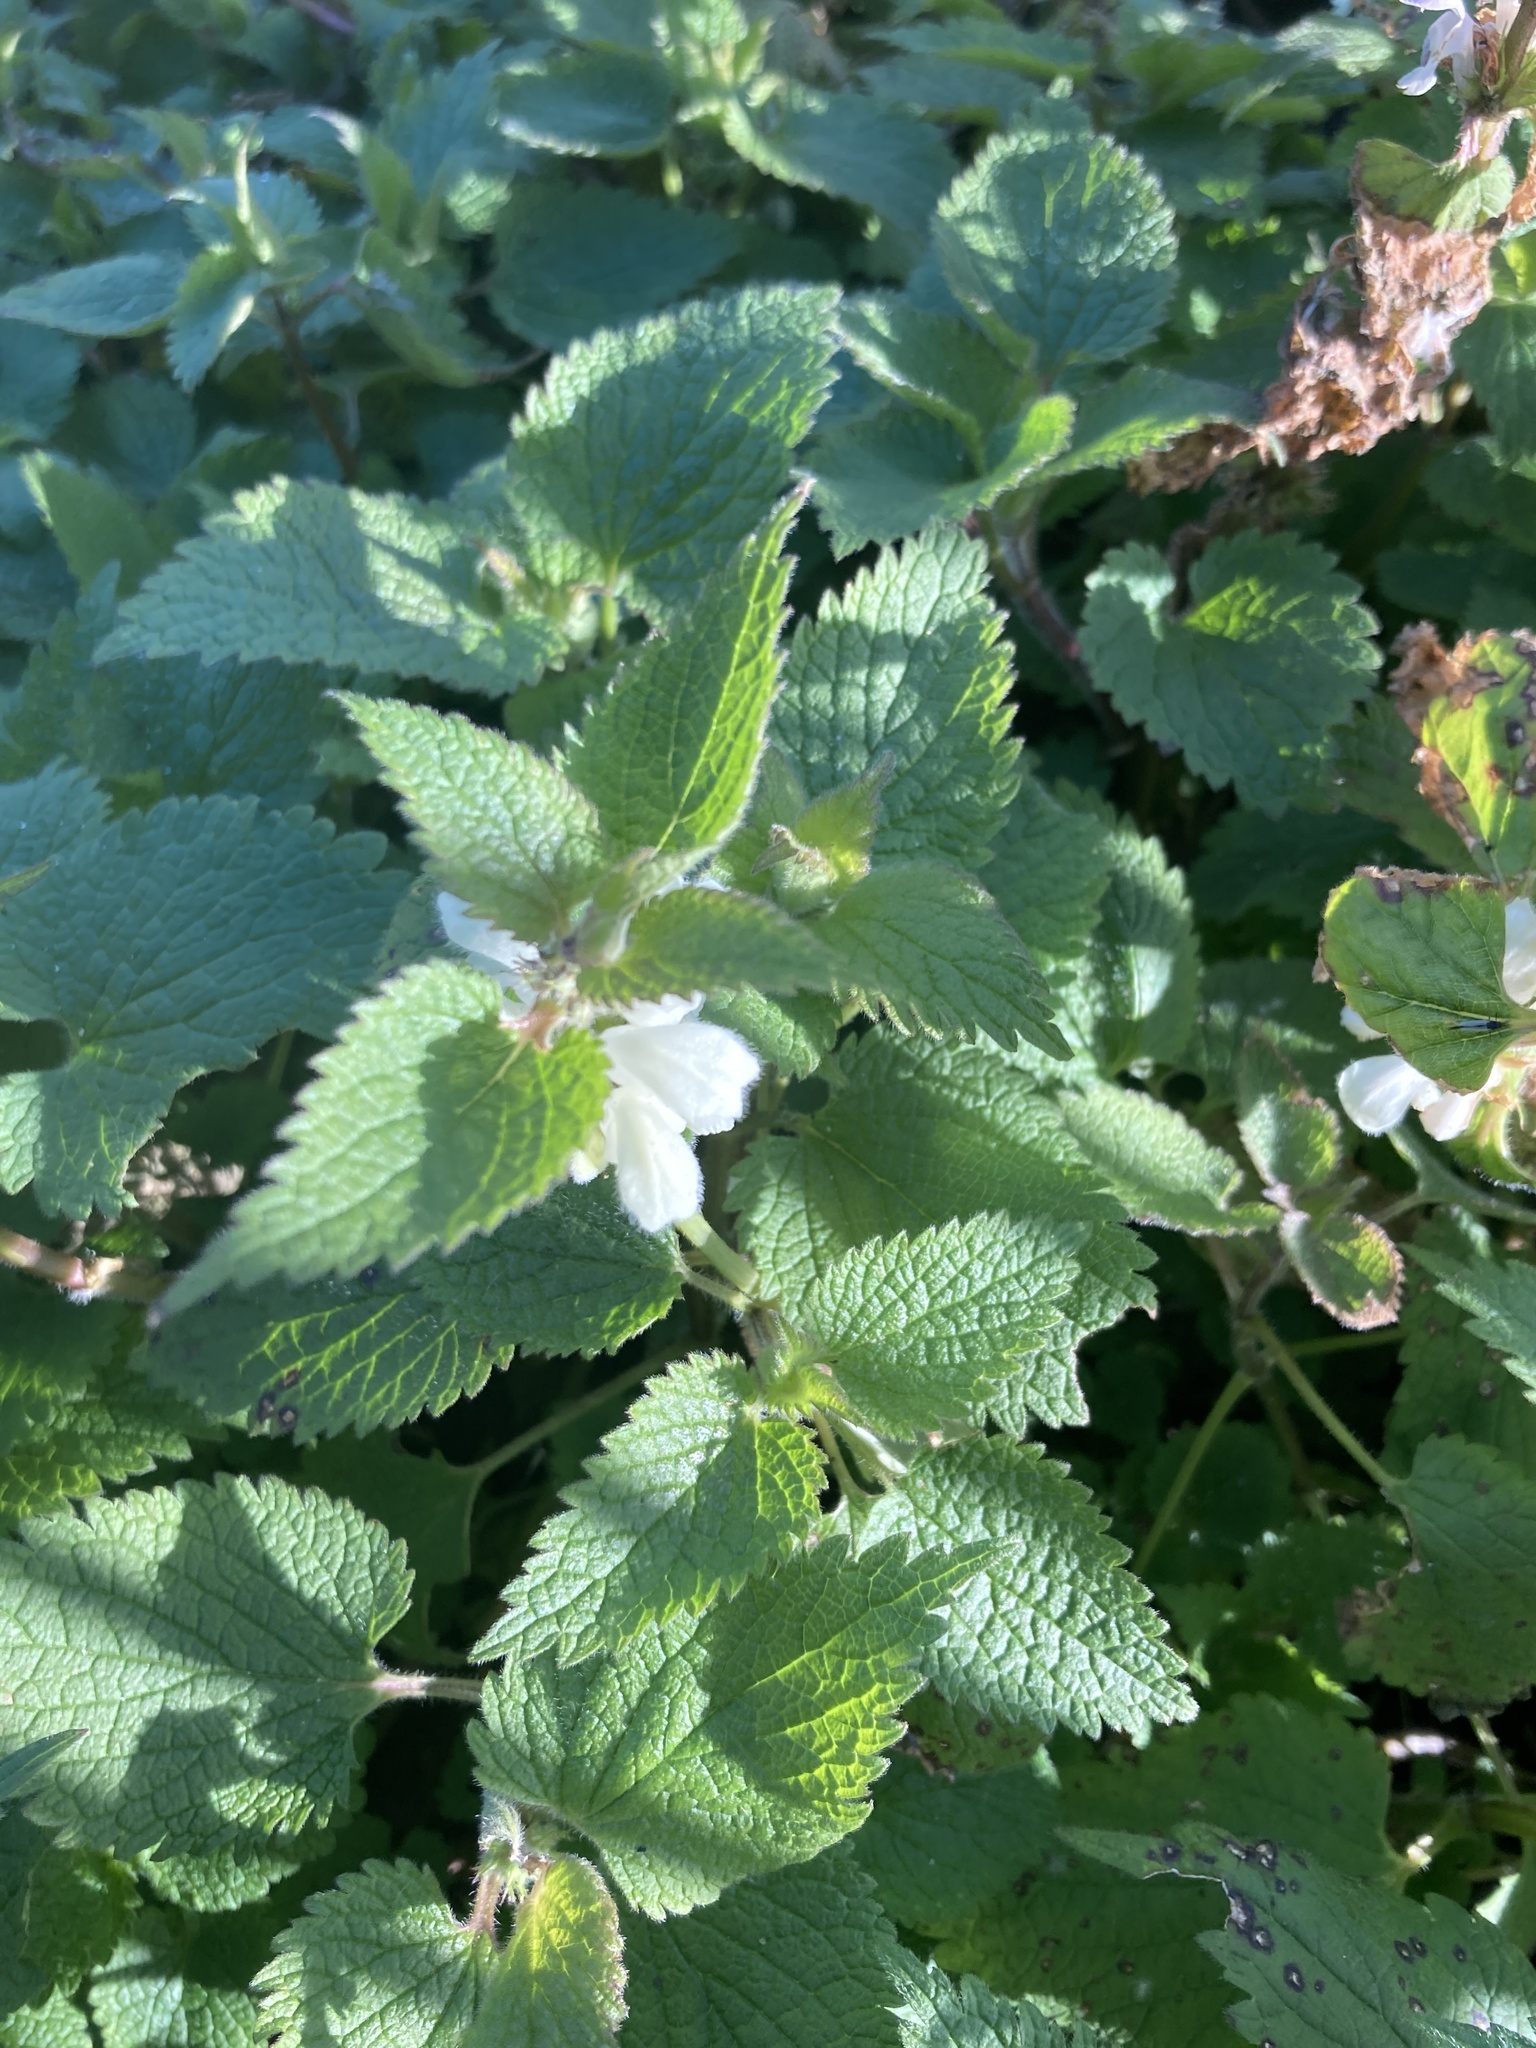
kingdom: Plantae
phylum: Tracheophyta
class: Magnoliopsida
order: Lamiales
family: Lamiaceae
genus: Lamium
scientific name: Lamium album
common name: White dead-nettle
